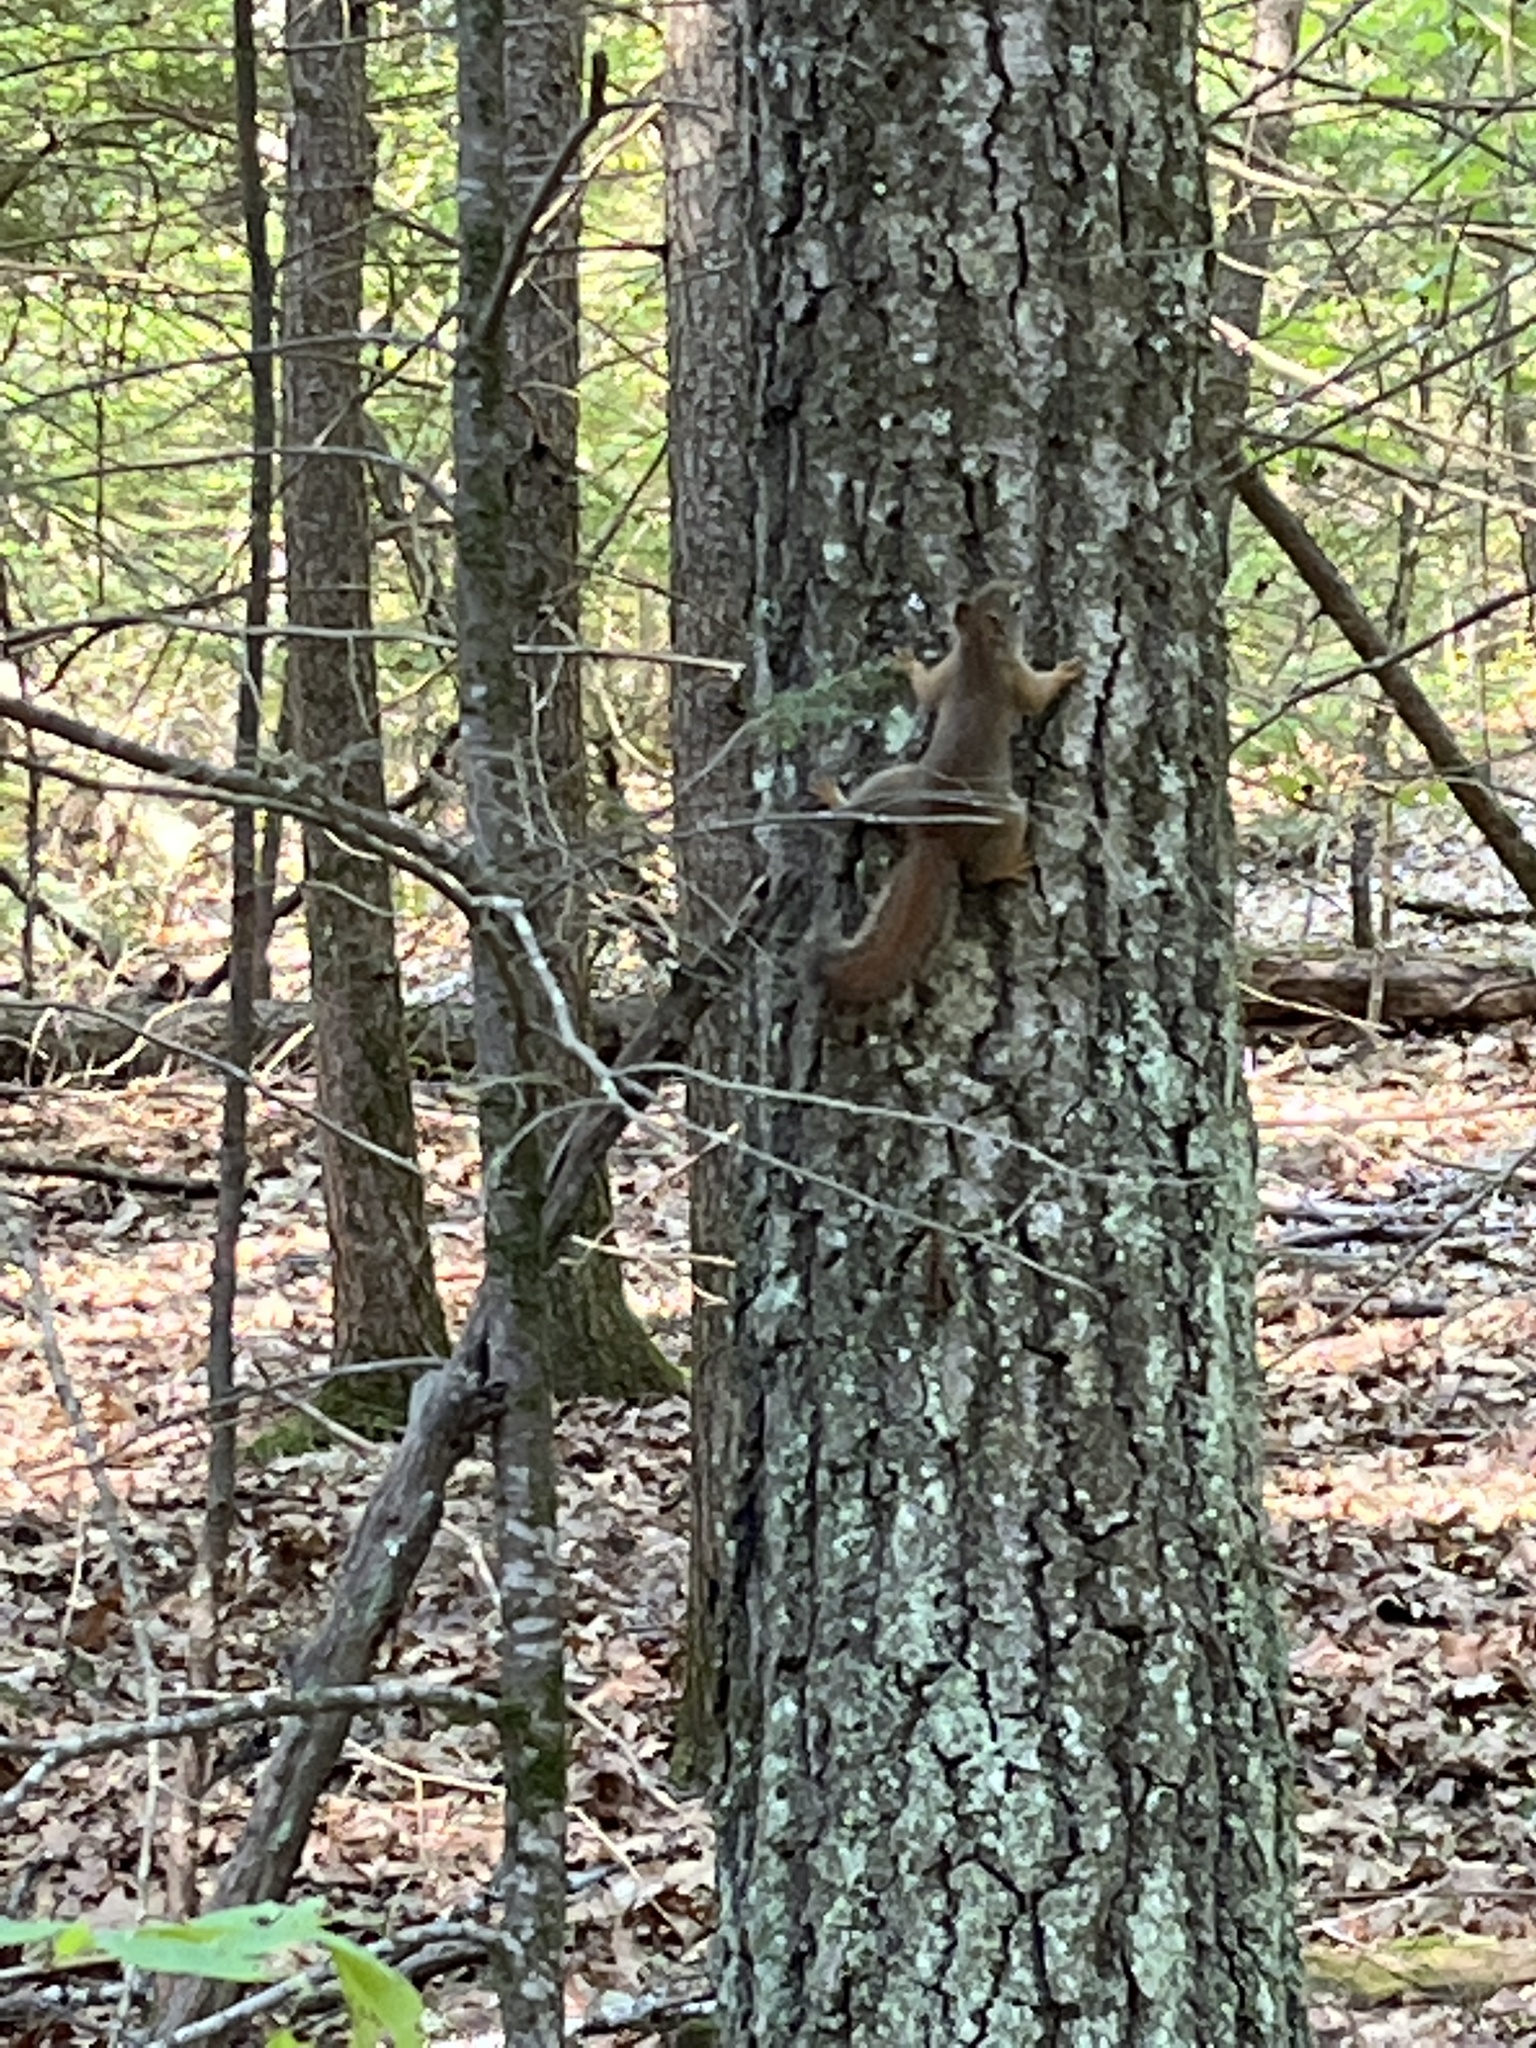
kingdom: Animalia
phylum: Chordata
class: Mammalia
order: Rodentia
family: Sciuridae
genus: Tamiasciurus
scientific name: Tamiasciurus hudsonicus
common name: Red squirrel
